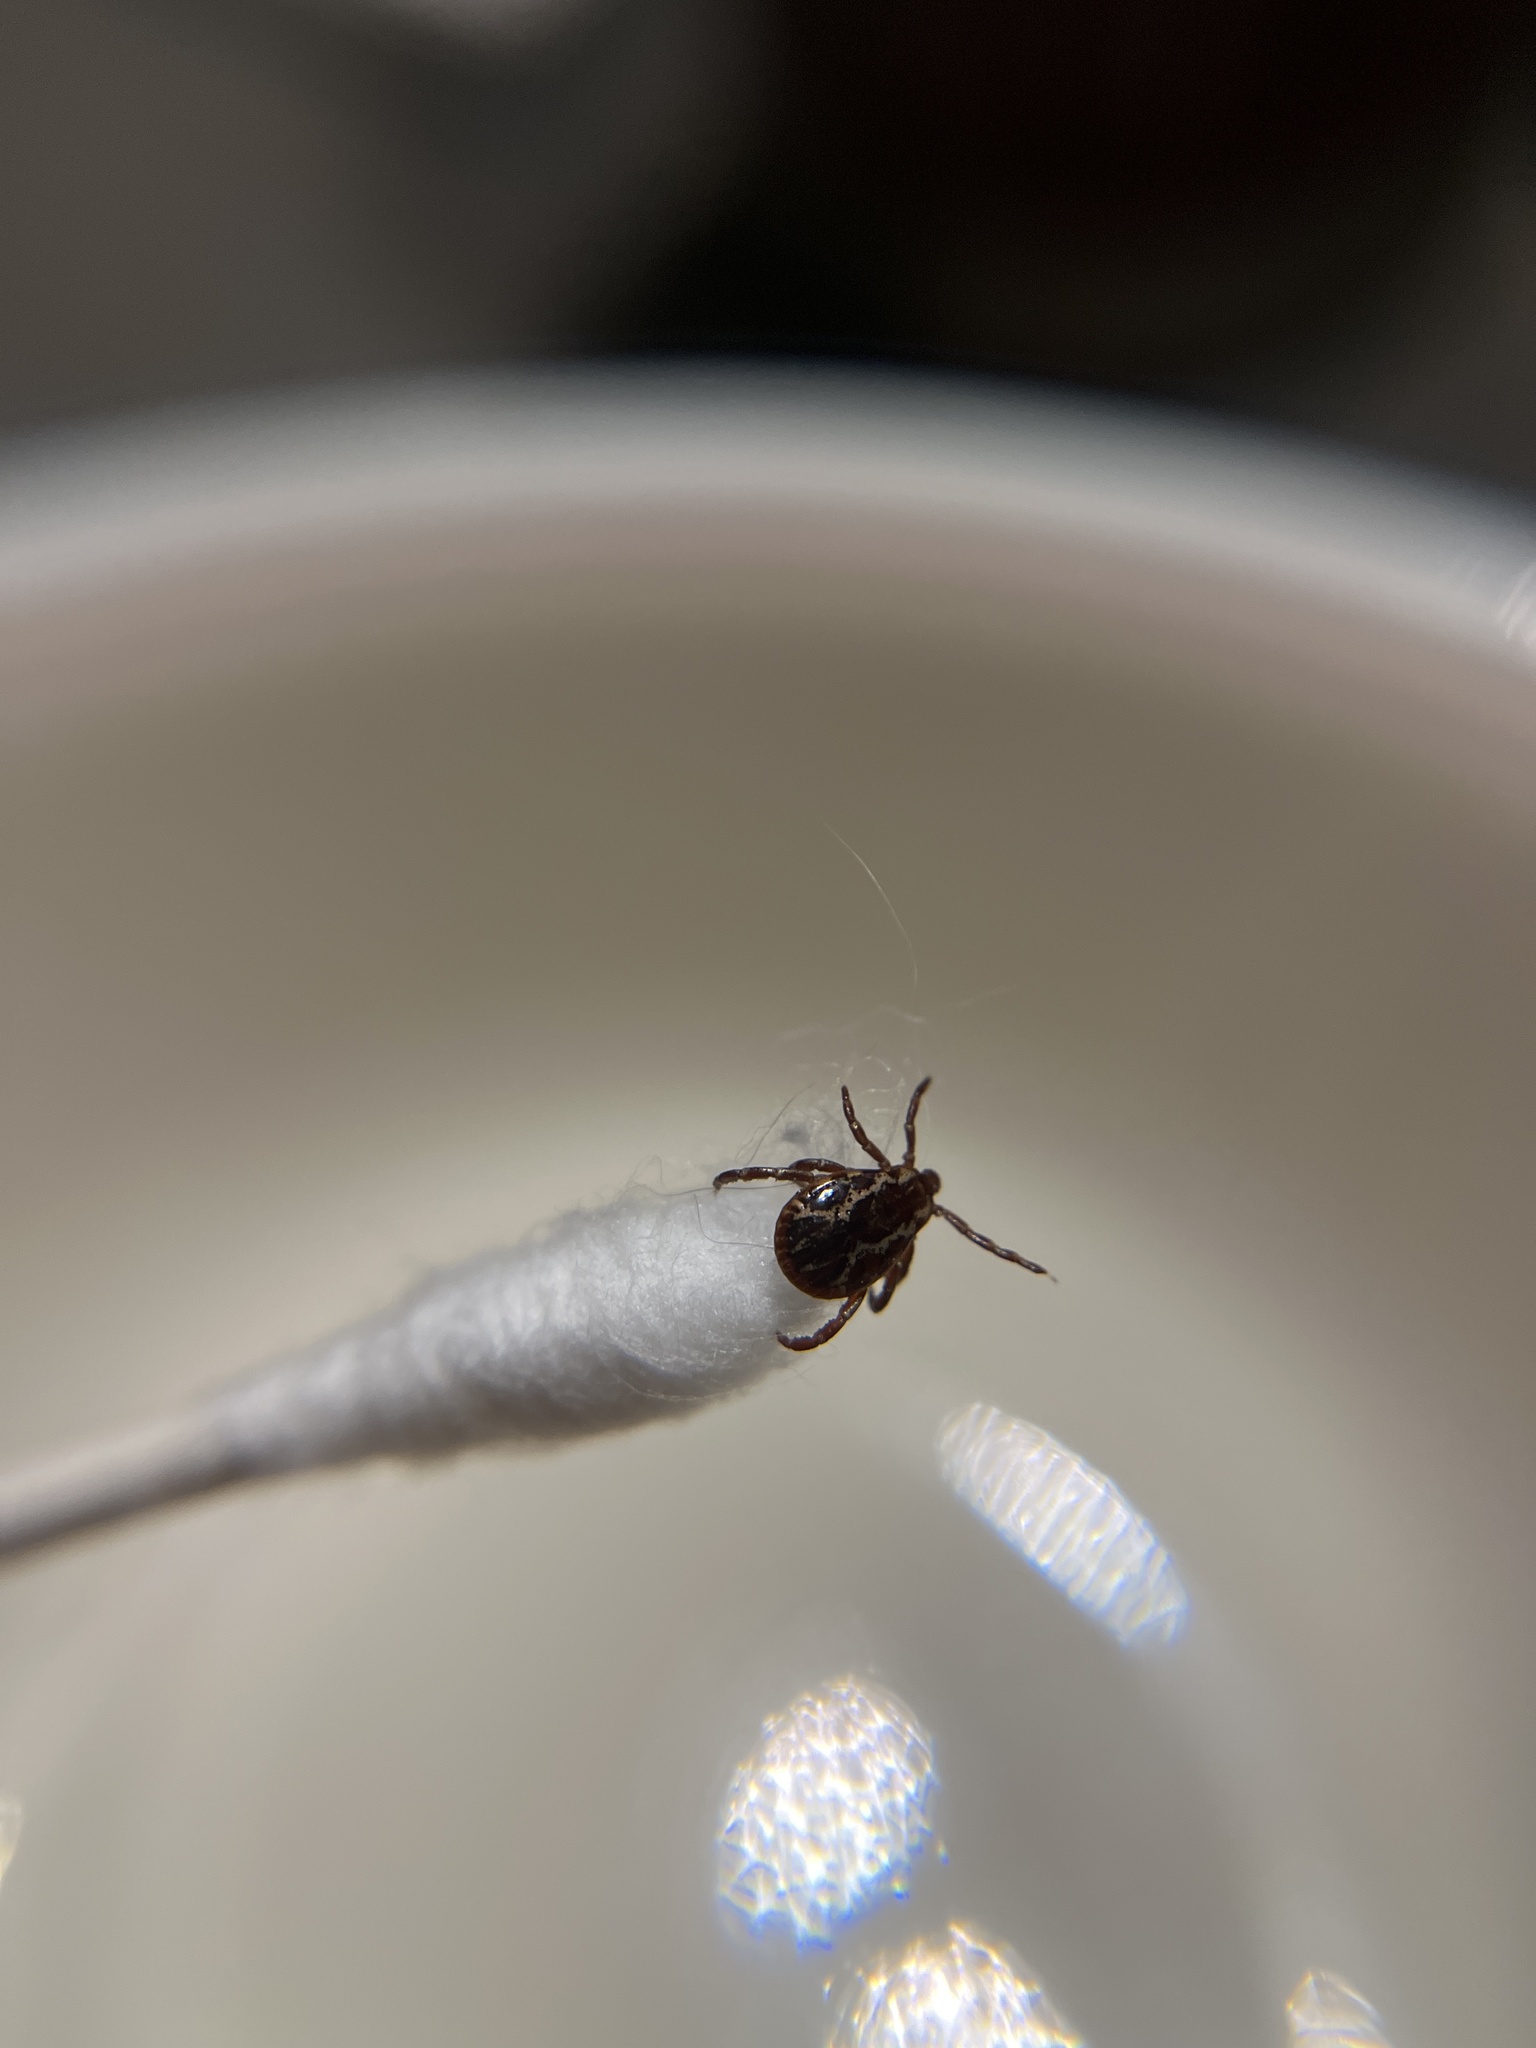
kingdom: Animalia
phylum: Arthropoda
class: Arachnida
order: Ixodida
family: Ixodidae
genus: Dermacentor
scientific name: Dermacentor variabilis
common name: American dog tick
